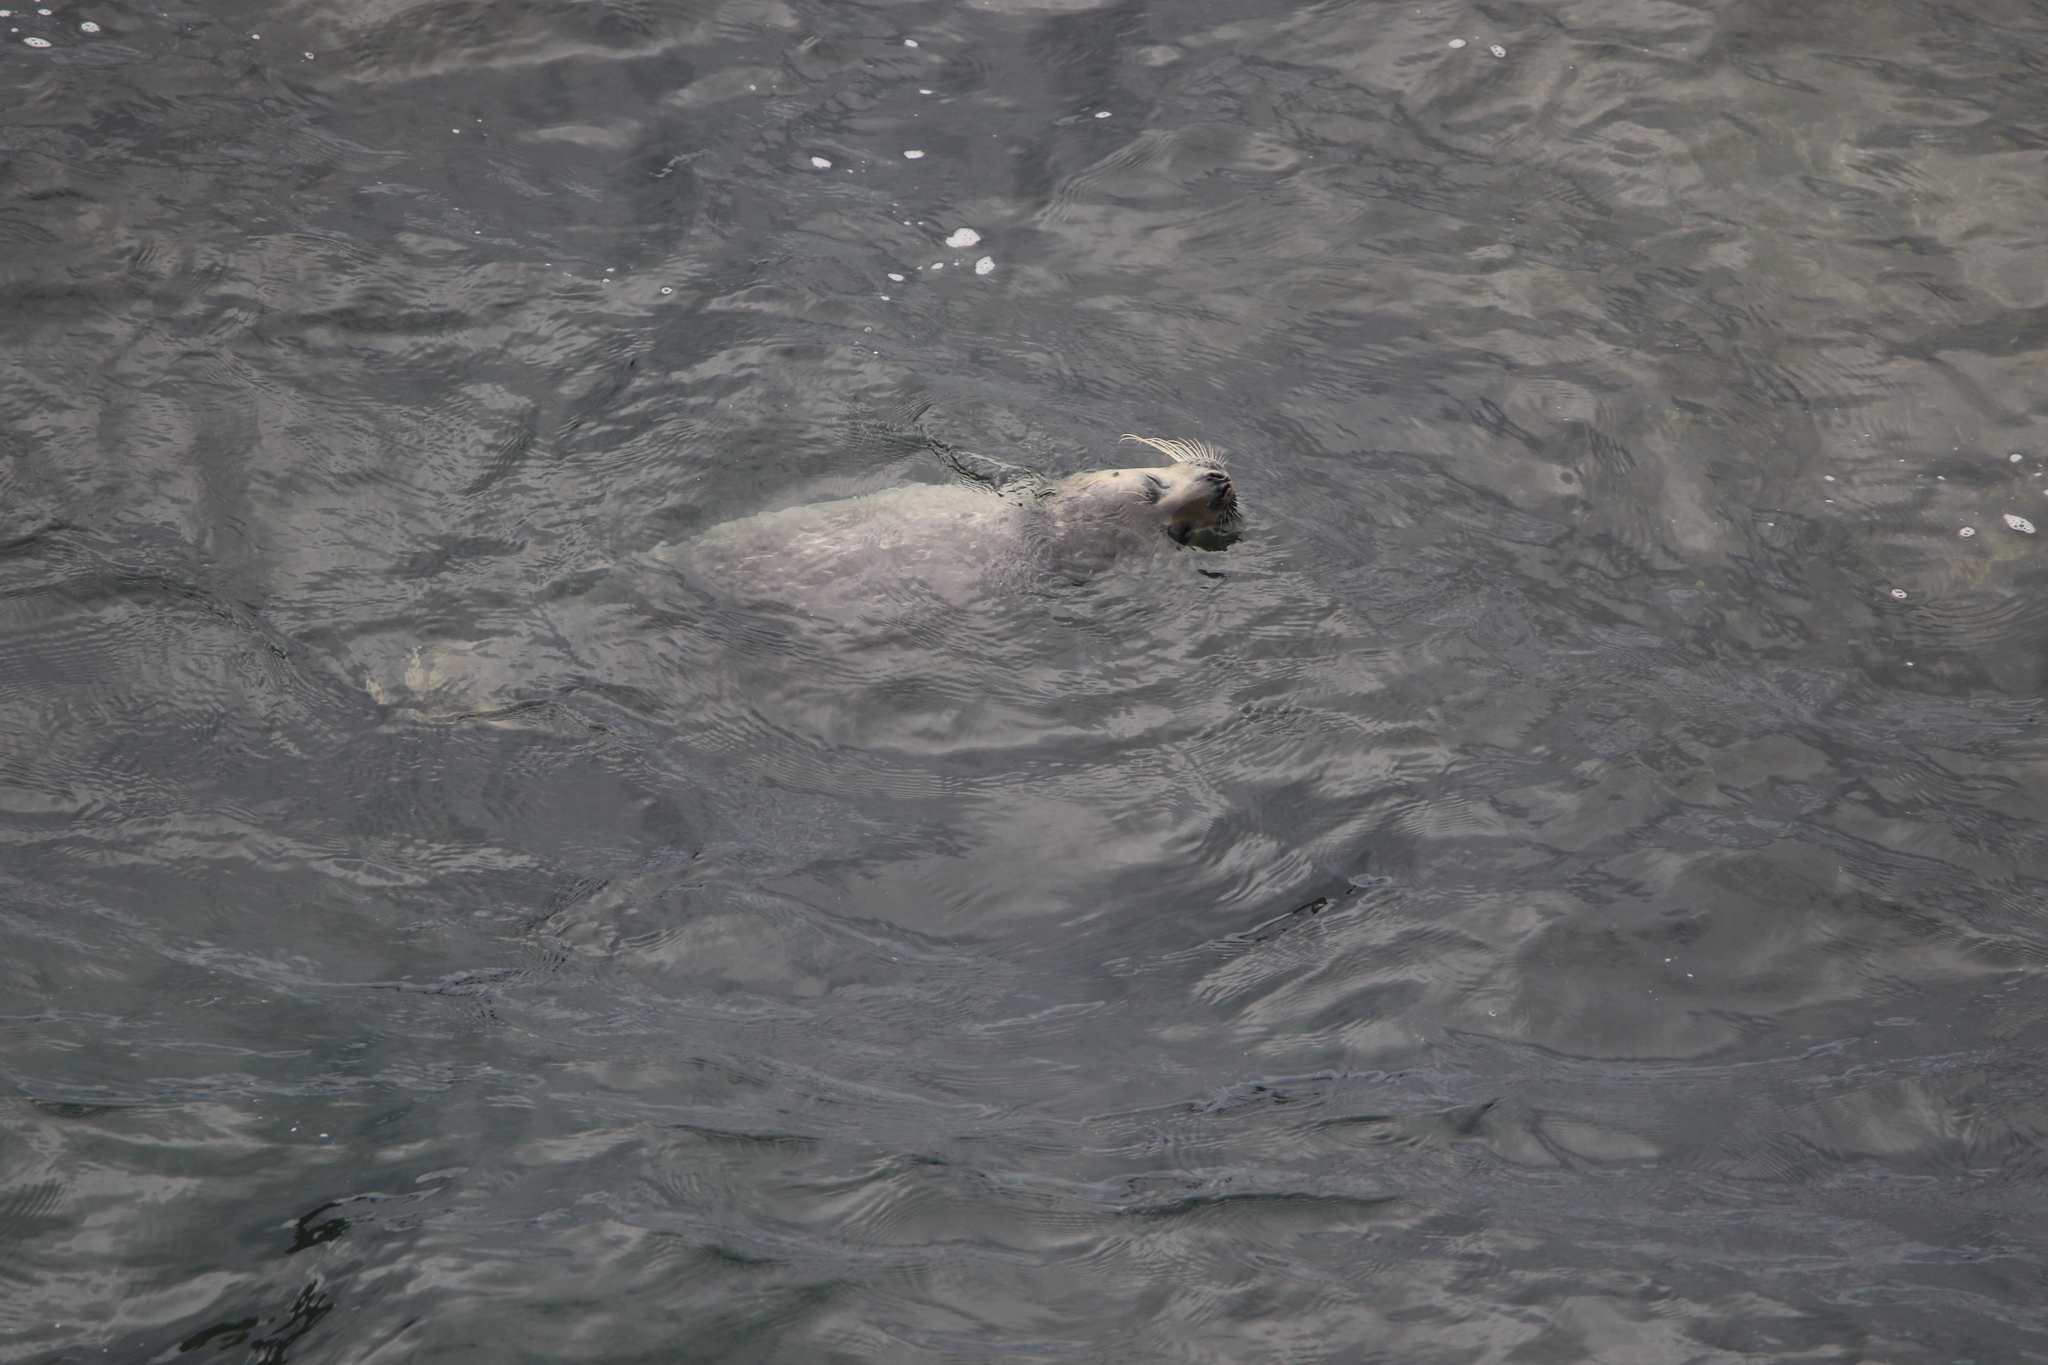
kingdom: Animalia
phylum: Chordata
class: Mammalia
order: Carnivora
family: Phocidae
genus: Phoca
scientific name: Phoca vitulina
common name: Harbor seal
